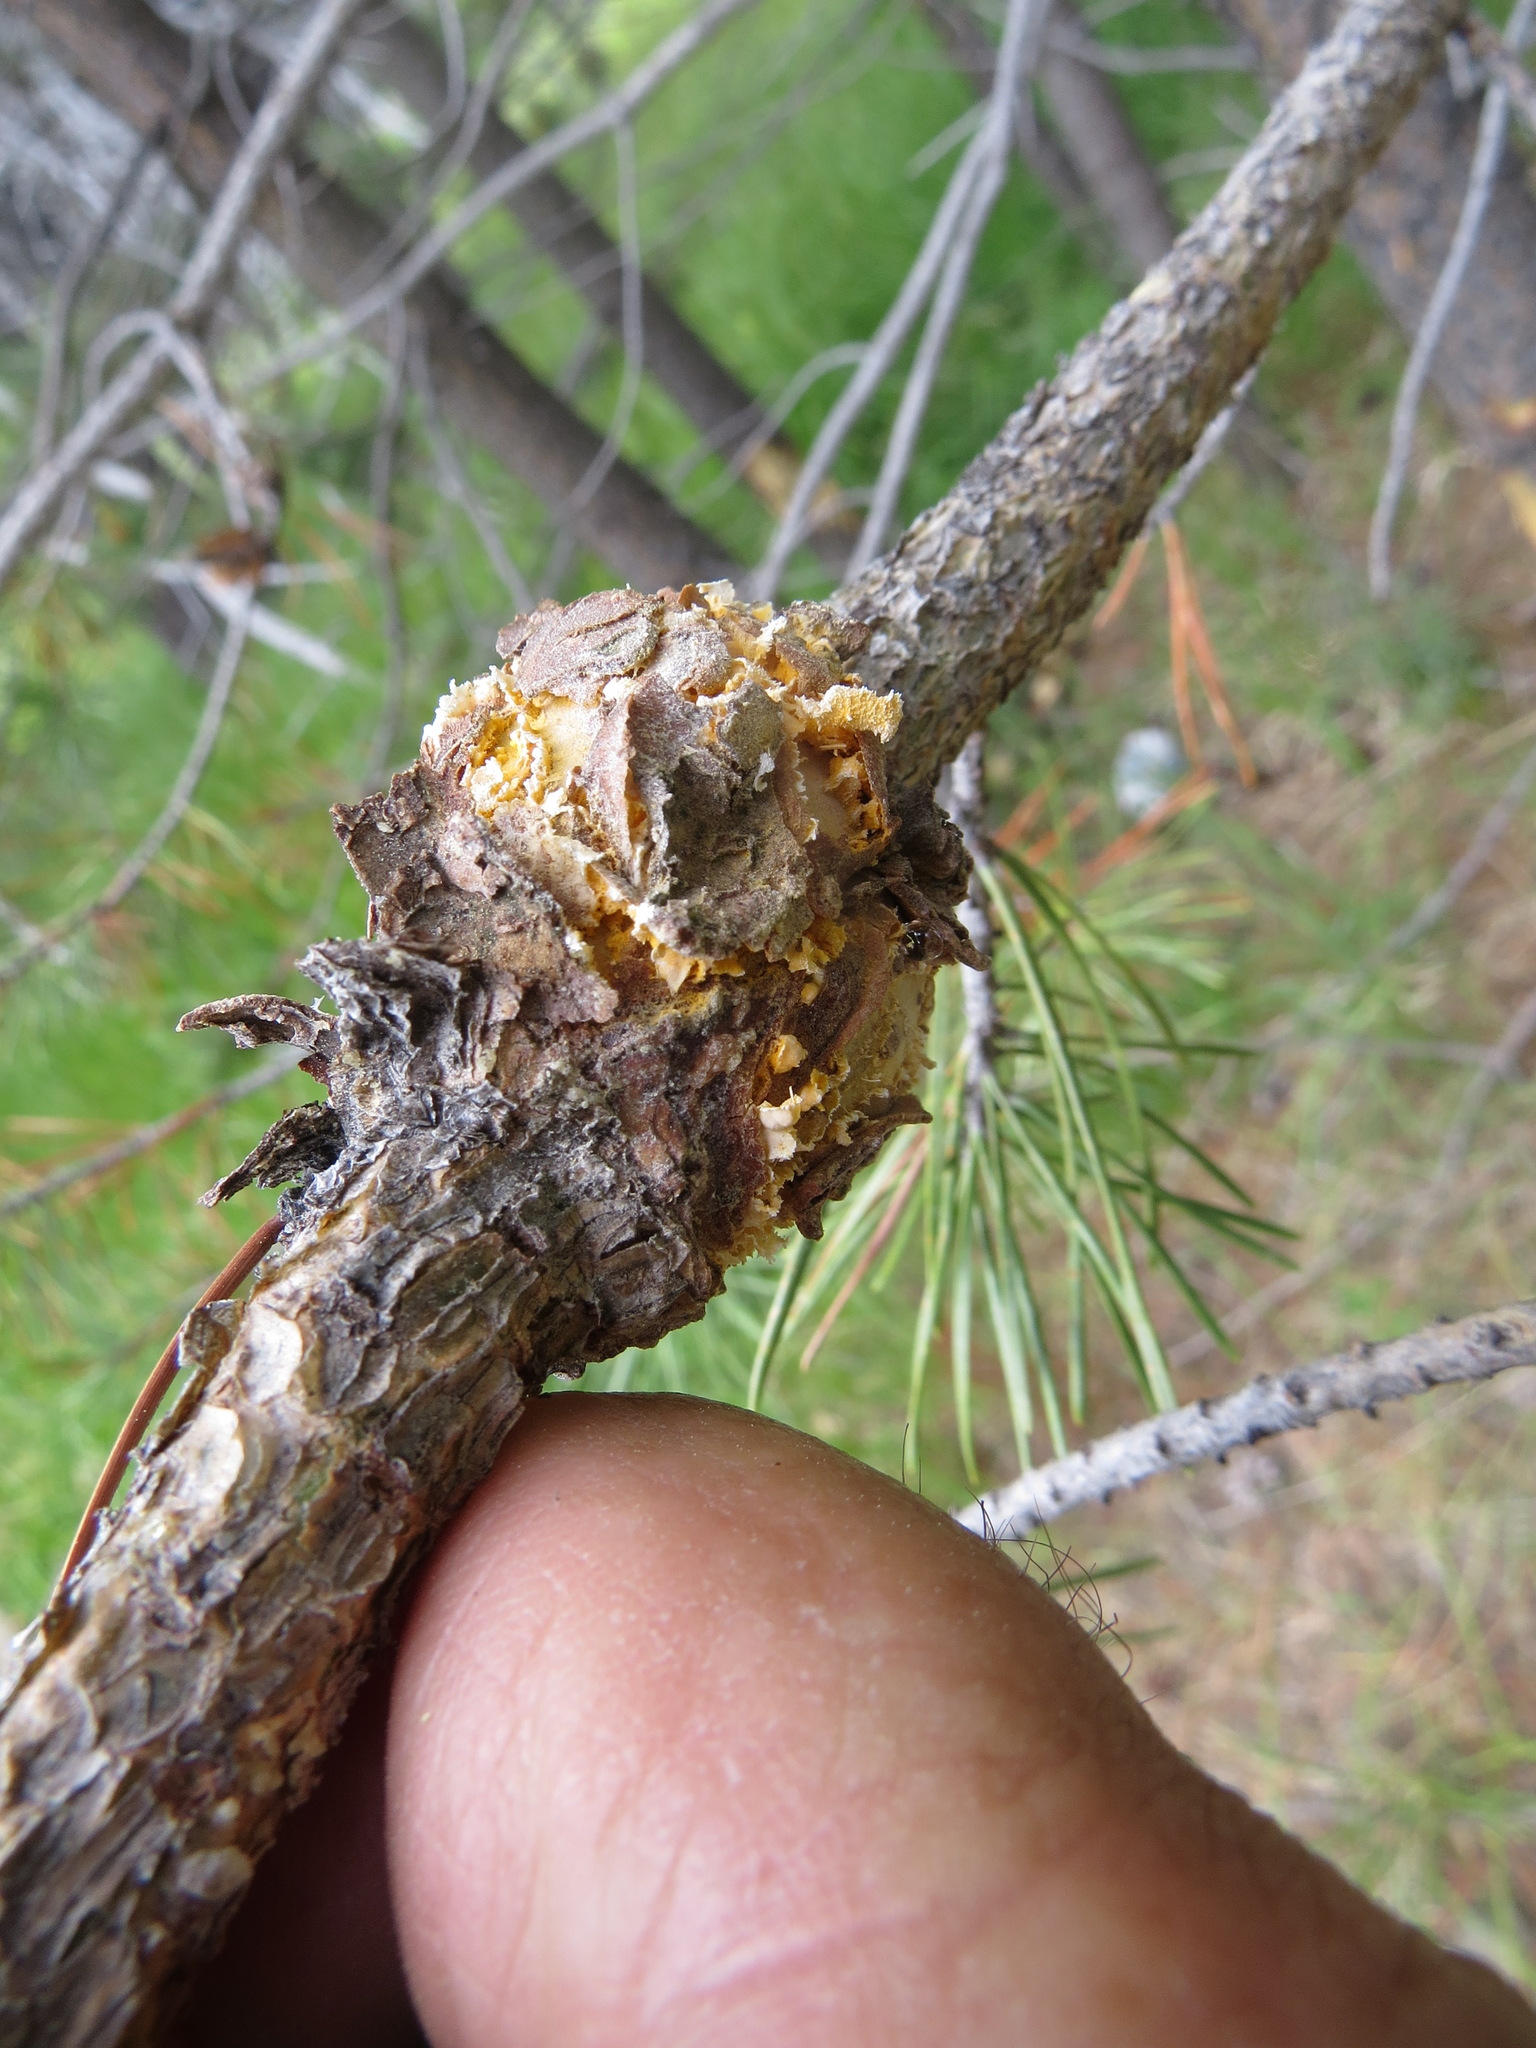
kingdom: Fungi
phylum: Basidiomycota
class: Pucciniomycetes
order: Pucciniales
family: Cronartiaceae
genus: Cronartium
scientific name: Cronartium harknessii
